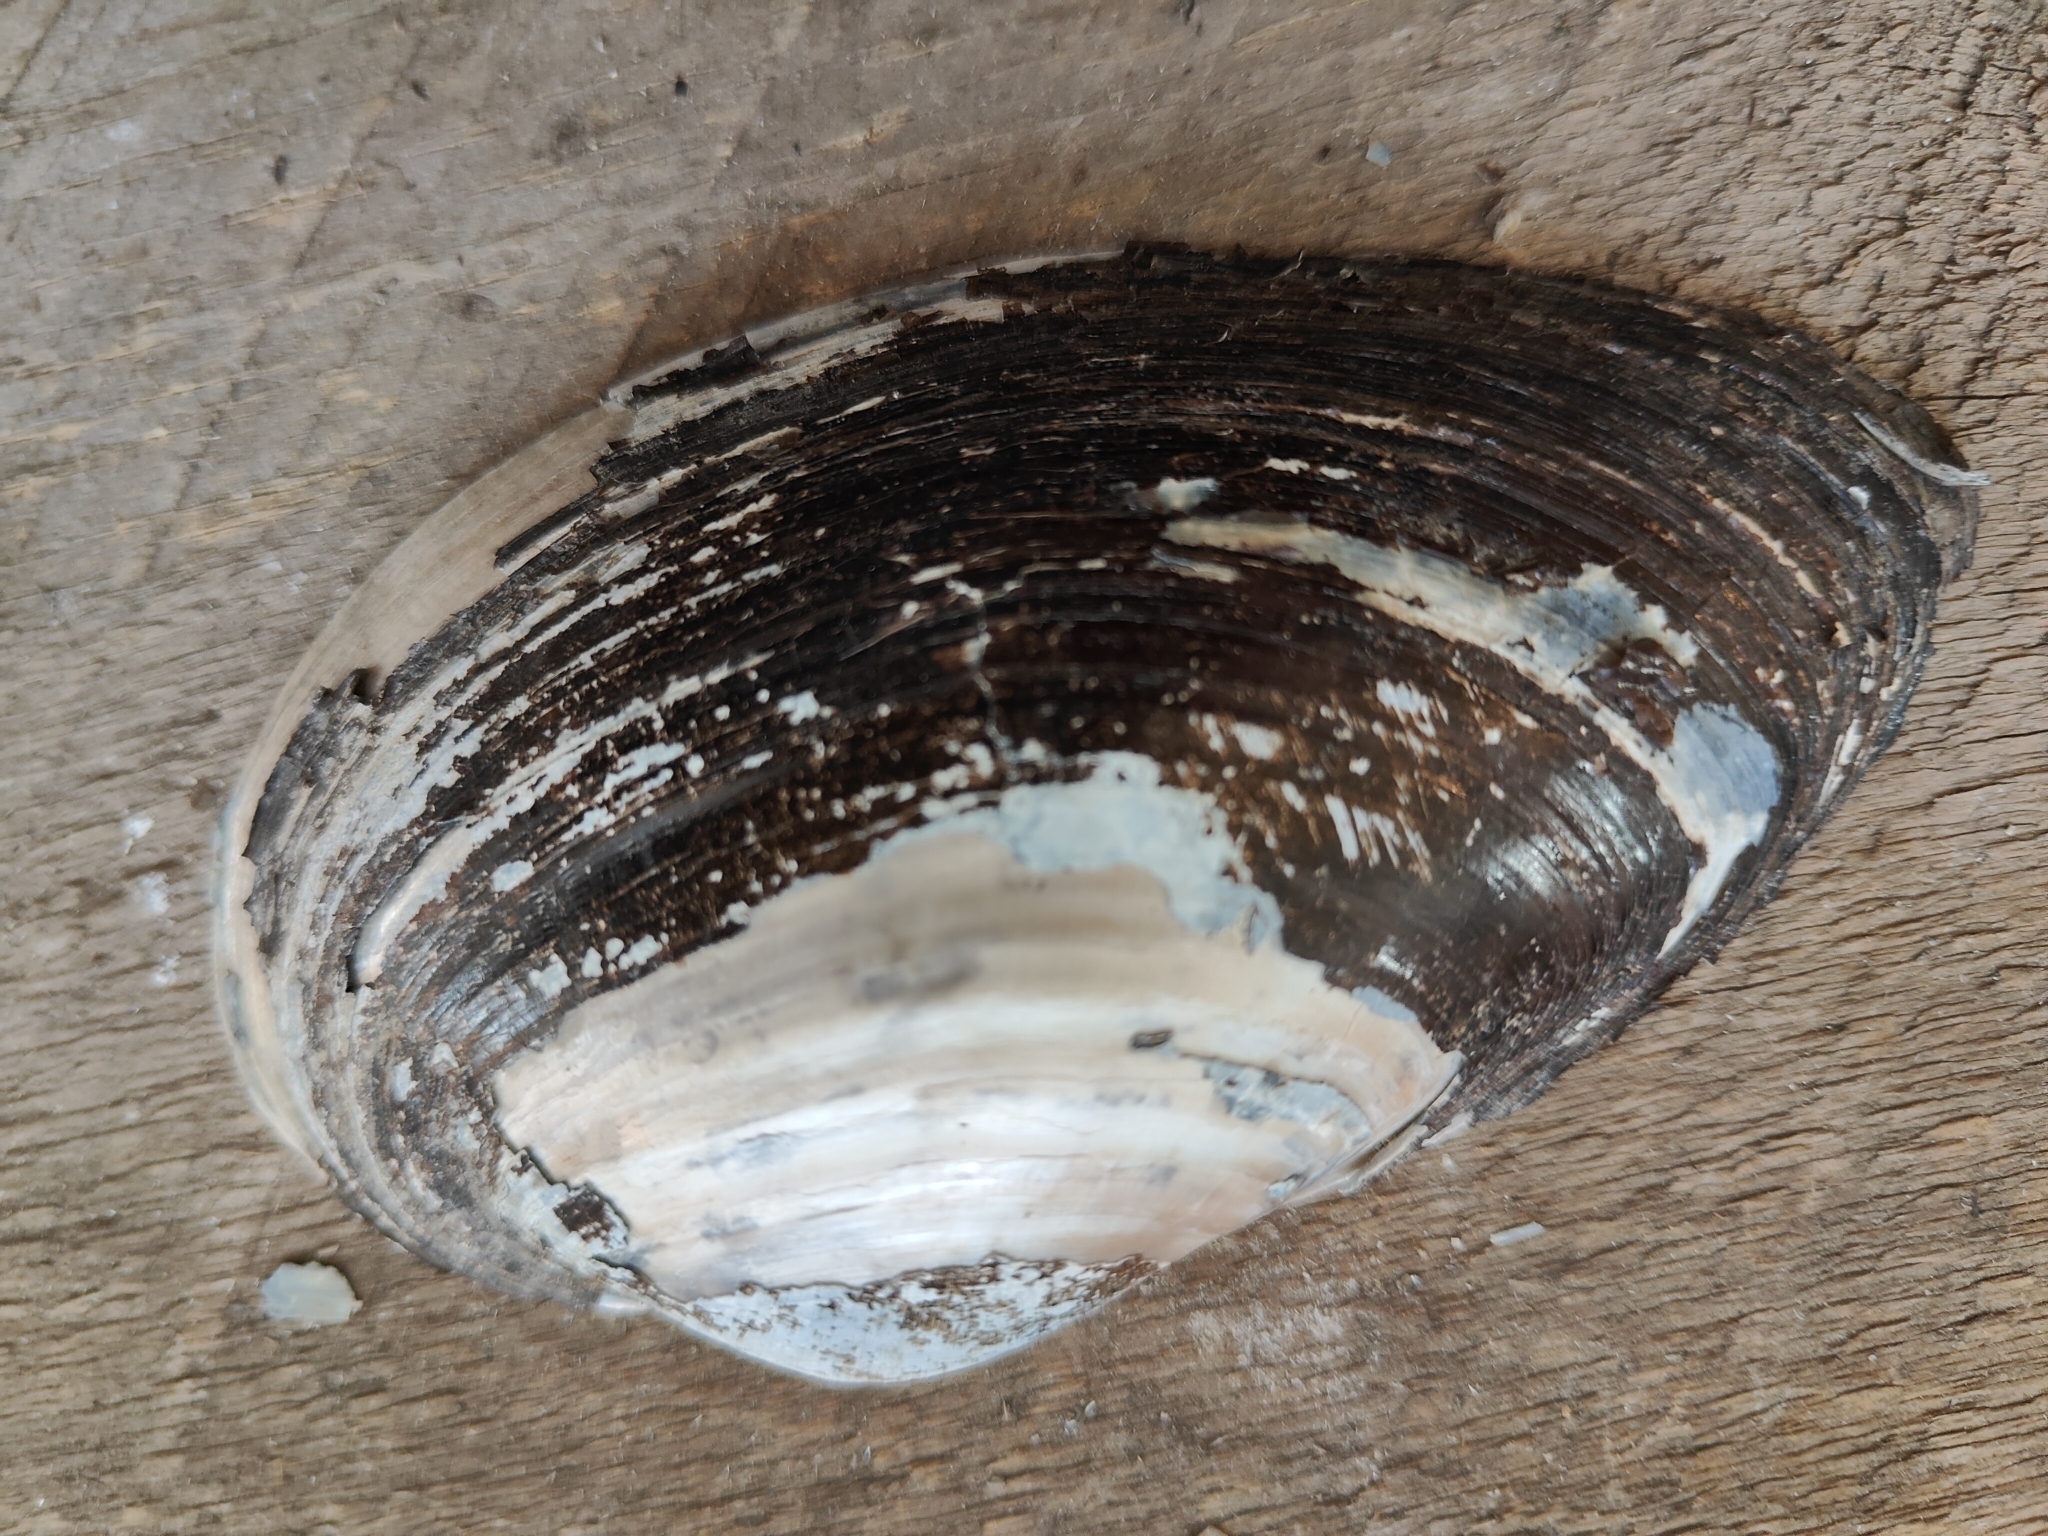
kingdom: Animalia
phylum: Mollusca
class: Bivalvia
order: Unionida
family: Unionidae
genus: Pyganodon
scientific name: Pyganodon grandis
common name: Giant floater
